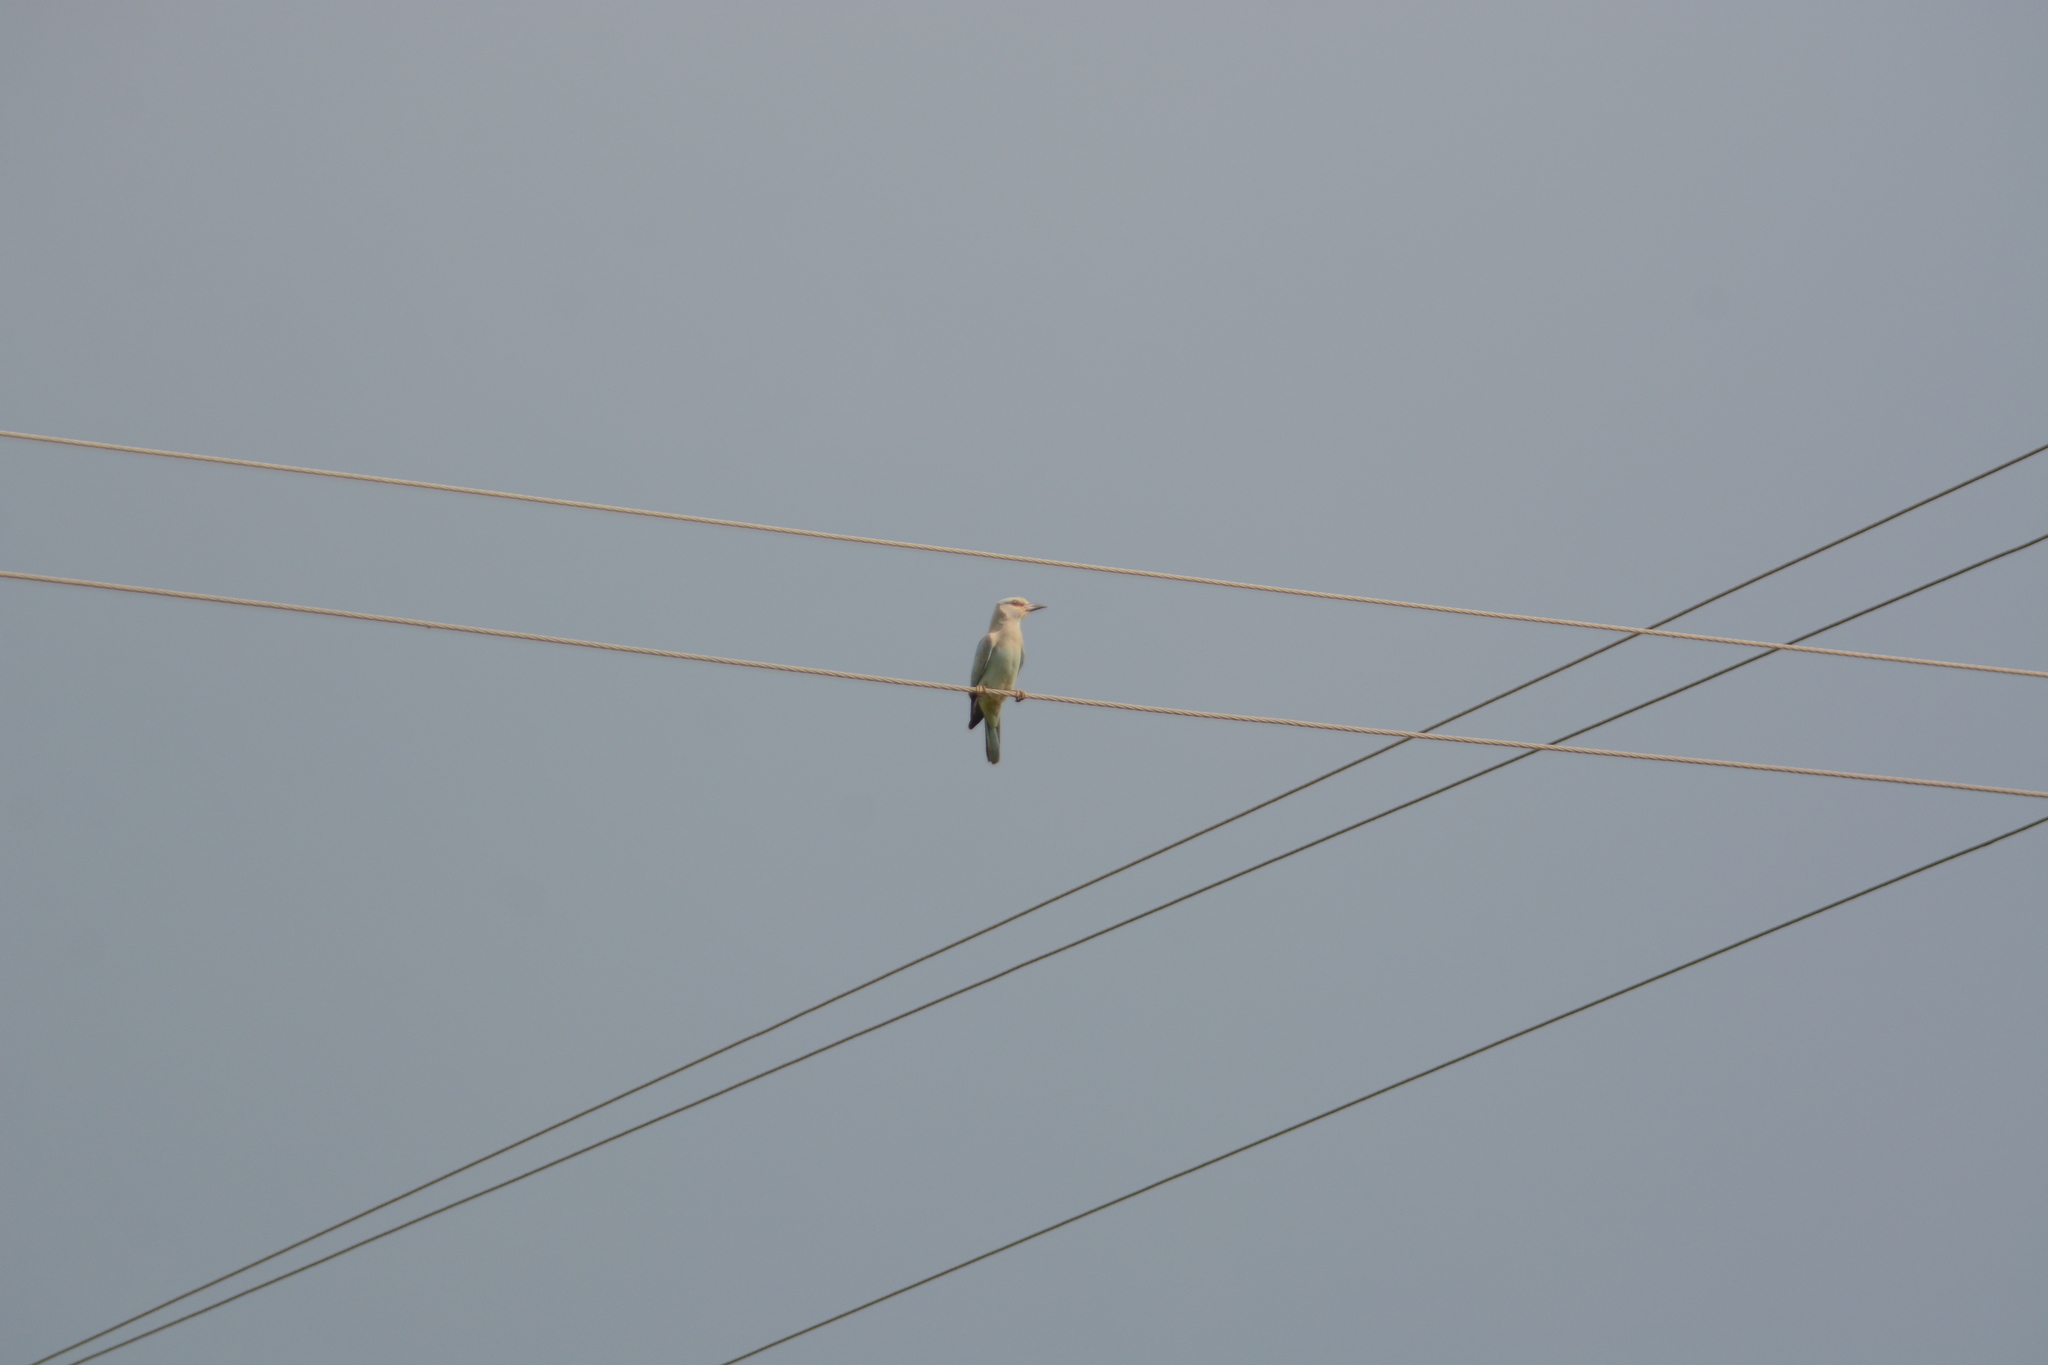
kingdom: Animalia
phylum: Chordata
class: Aves
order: Coraciiformes
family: Coraciidae
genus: Coracias
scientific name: Coracias garrulus
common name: European roller
